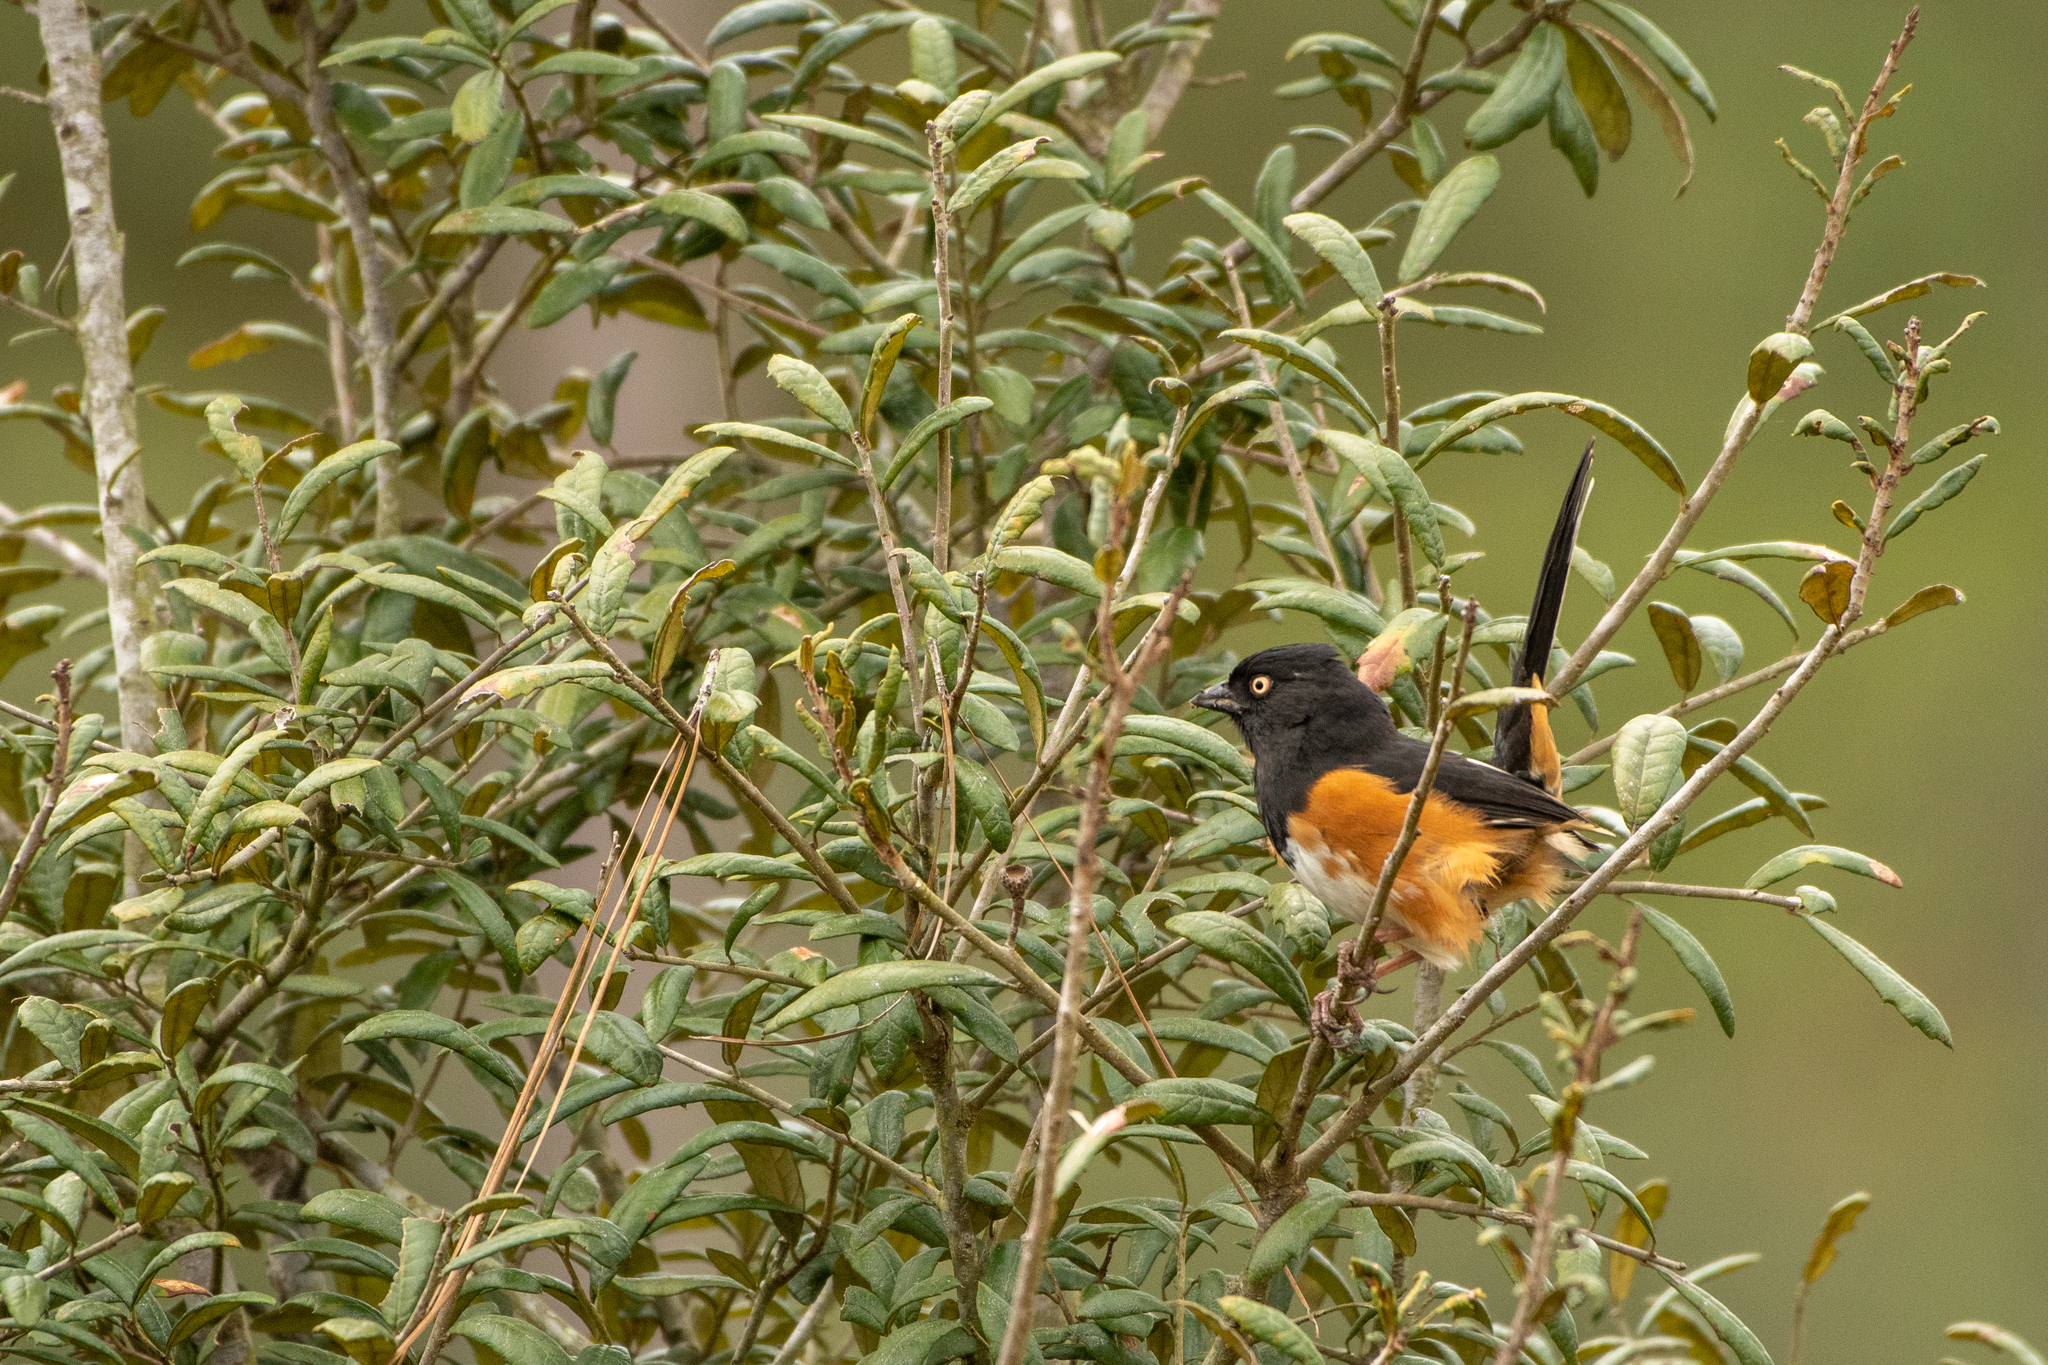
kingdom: Animalia
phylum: Chordata
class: Aves
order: Passeriformes
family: Passerellidae
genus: Pipilo
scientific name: Pipilo erythrophthalmus
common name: Eastern towhee
